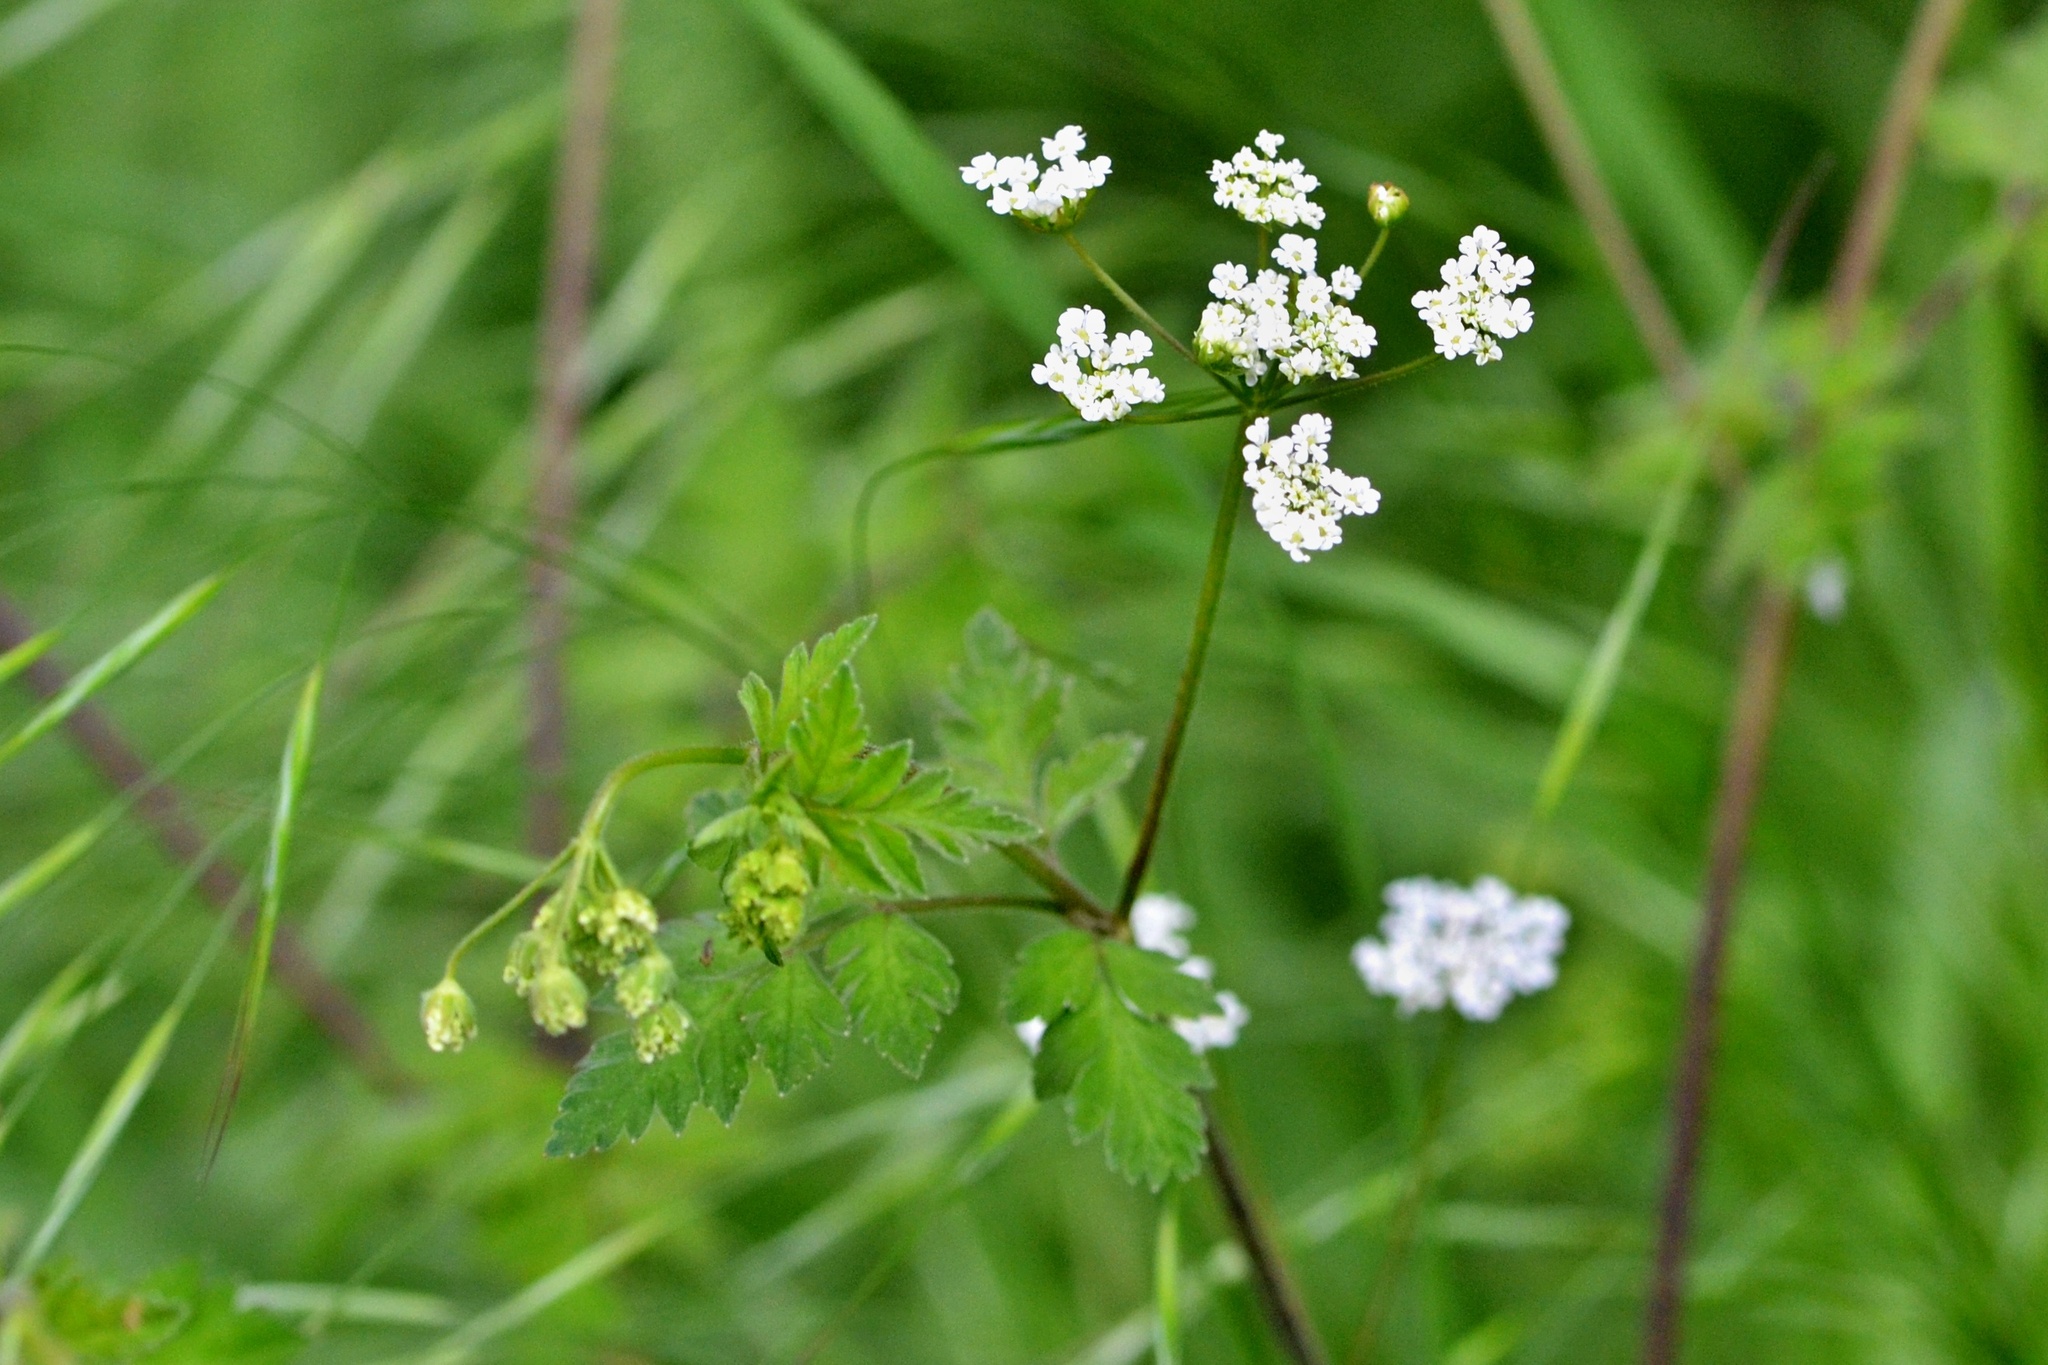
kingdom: Plantae
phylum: Tracheophyta
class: Magnoliopsida
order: Apiales
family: Apiaceae
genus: Chaerophyllum
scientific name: Chaerophyllum temulum
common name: Rough chervil
